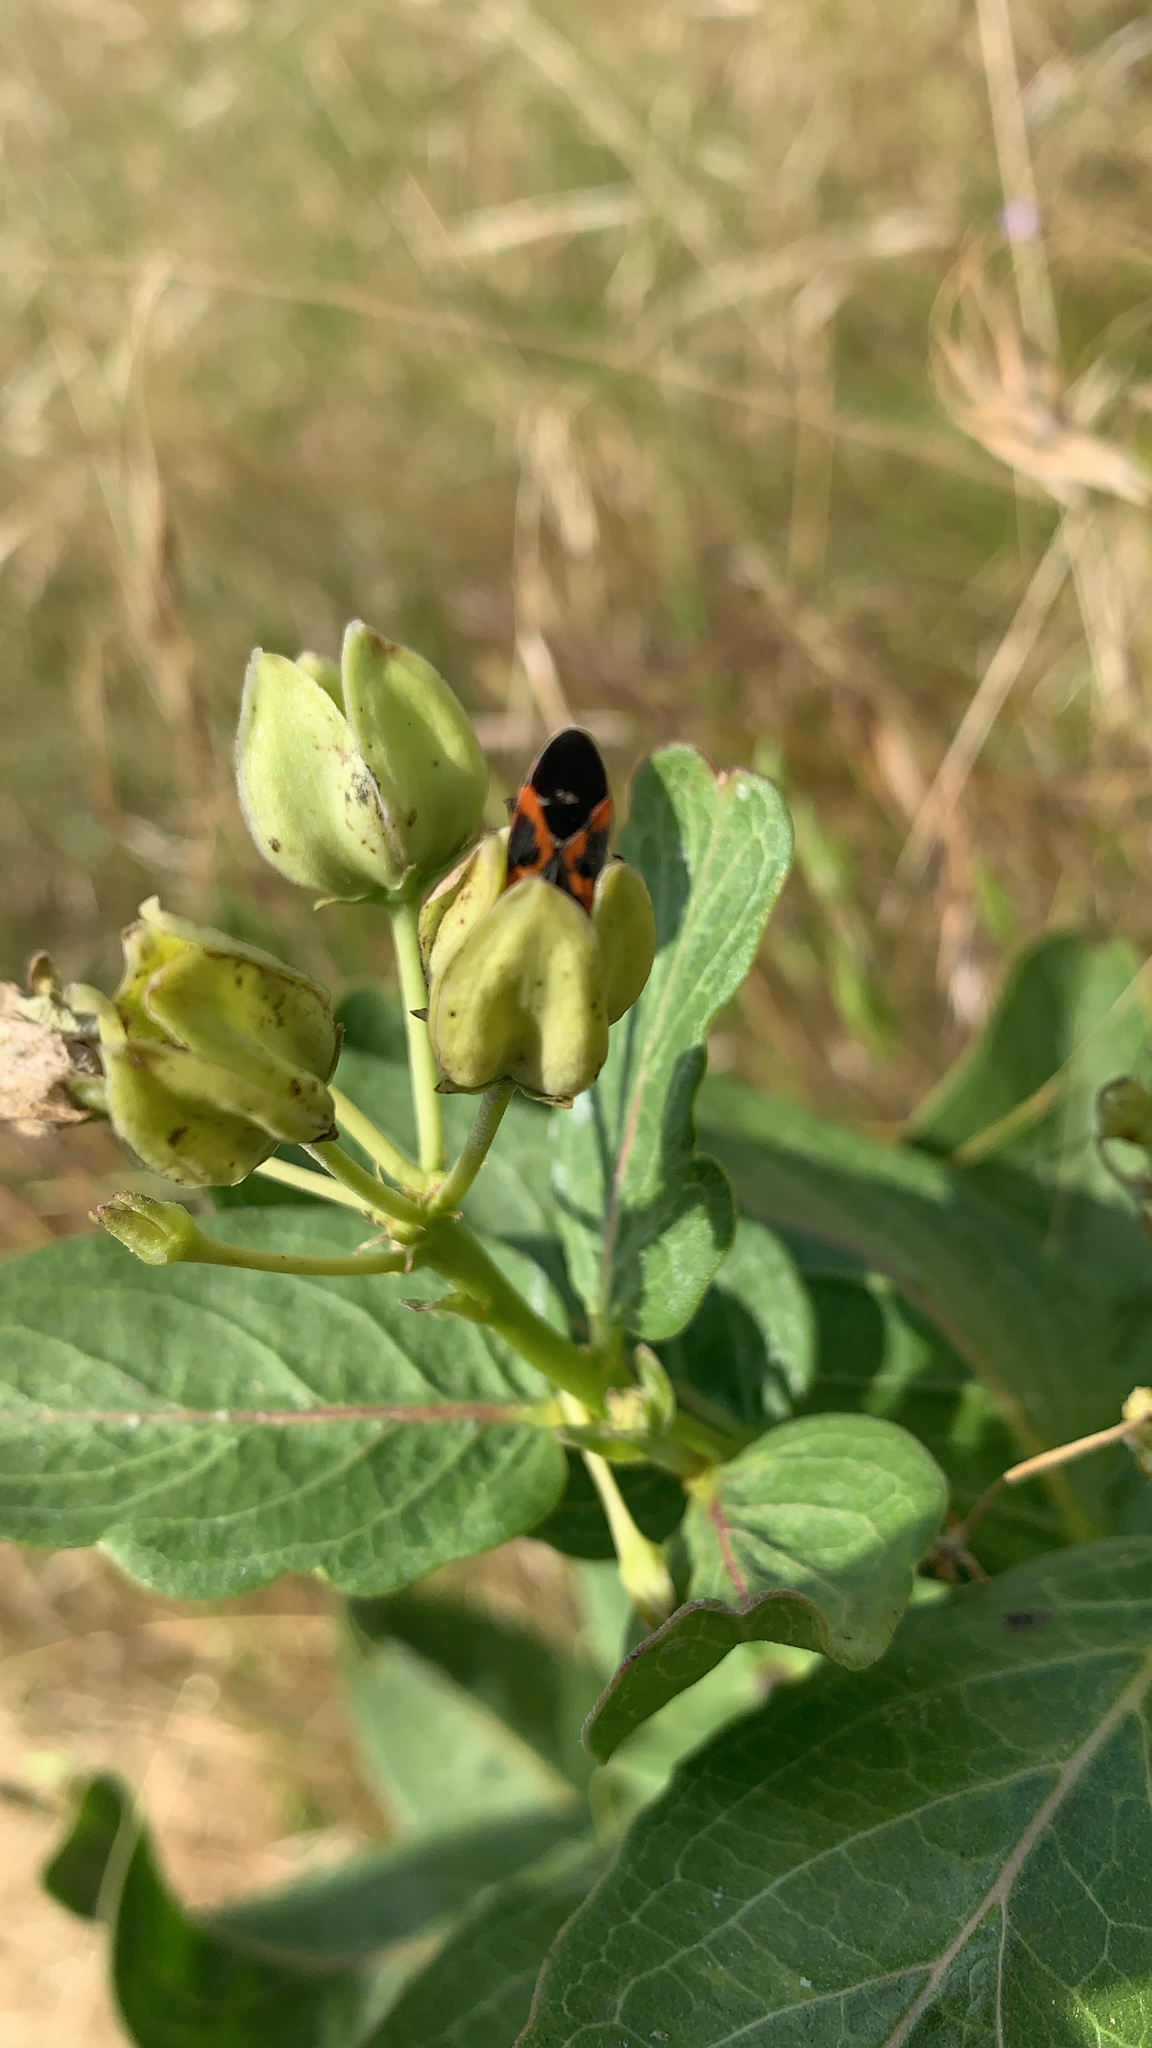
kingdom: Animalia
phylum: Arthropoda
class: Insecta
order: Hemiptera
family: Lygaeidae
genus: Lygaeus
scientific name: Lygaeus kalmii
